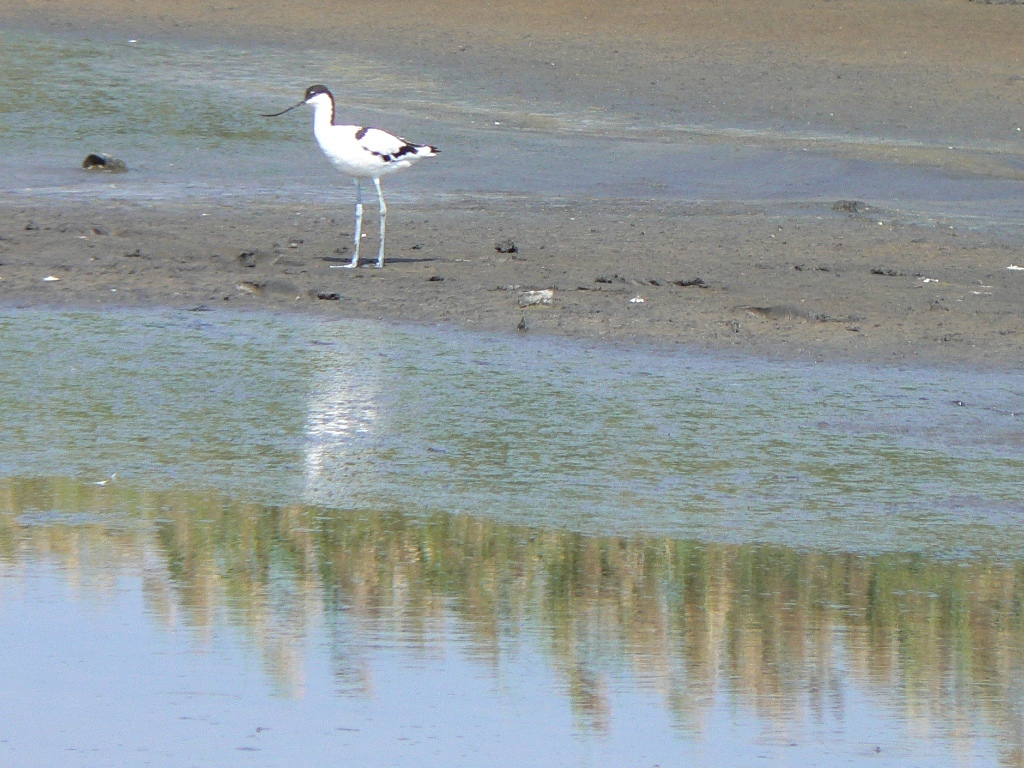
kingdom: Animalia
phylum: Chordata
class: Aves
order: Charadriiformes
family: Recurvirostridae
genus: Recurvirostra
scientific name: Recurvirostra avosetta
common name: Pied avocet
